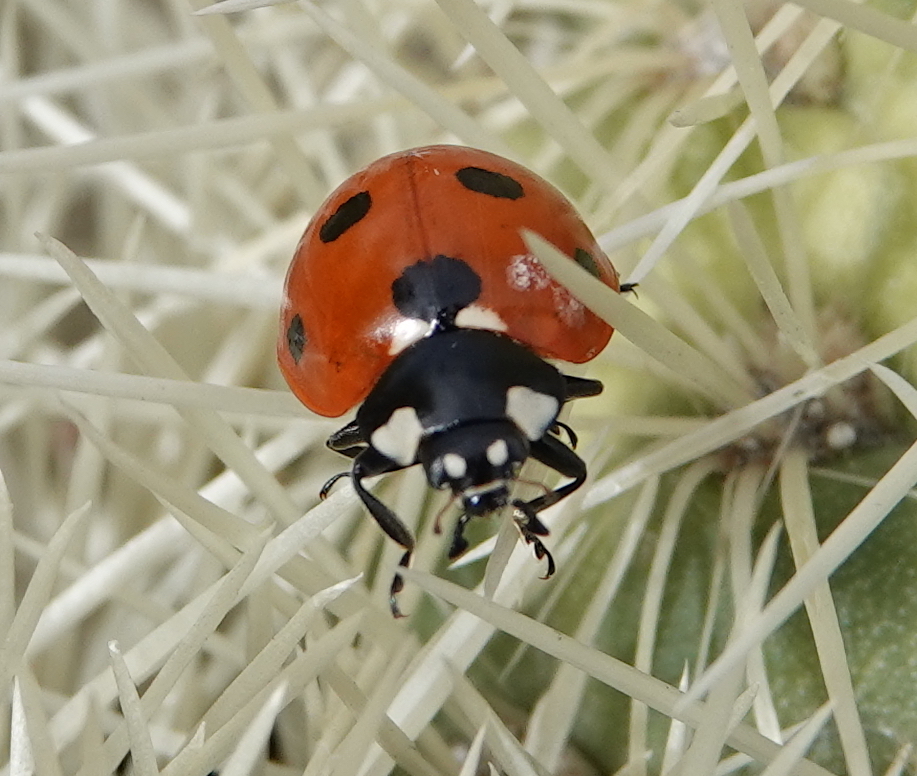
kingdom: Animalia
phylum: Arthropoda
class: Insecta
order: Coleoptera
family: Coccinellidae
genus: Coccinella
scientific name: Coccinella septempunctata
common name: Sevenspotted lady beetle
